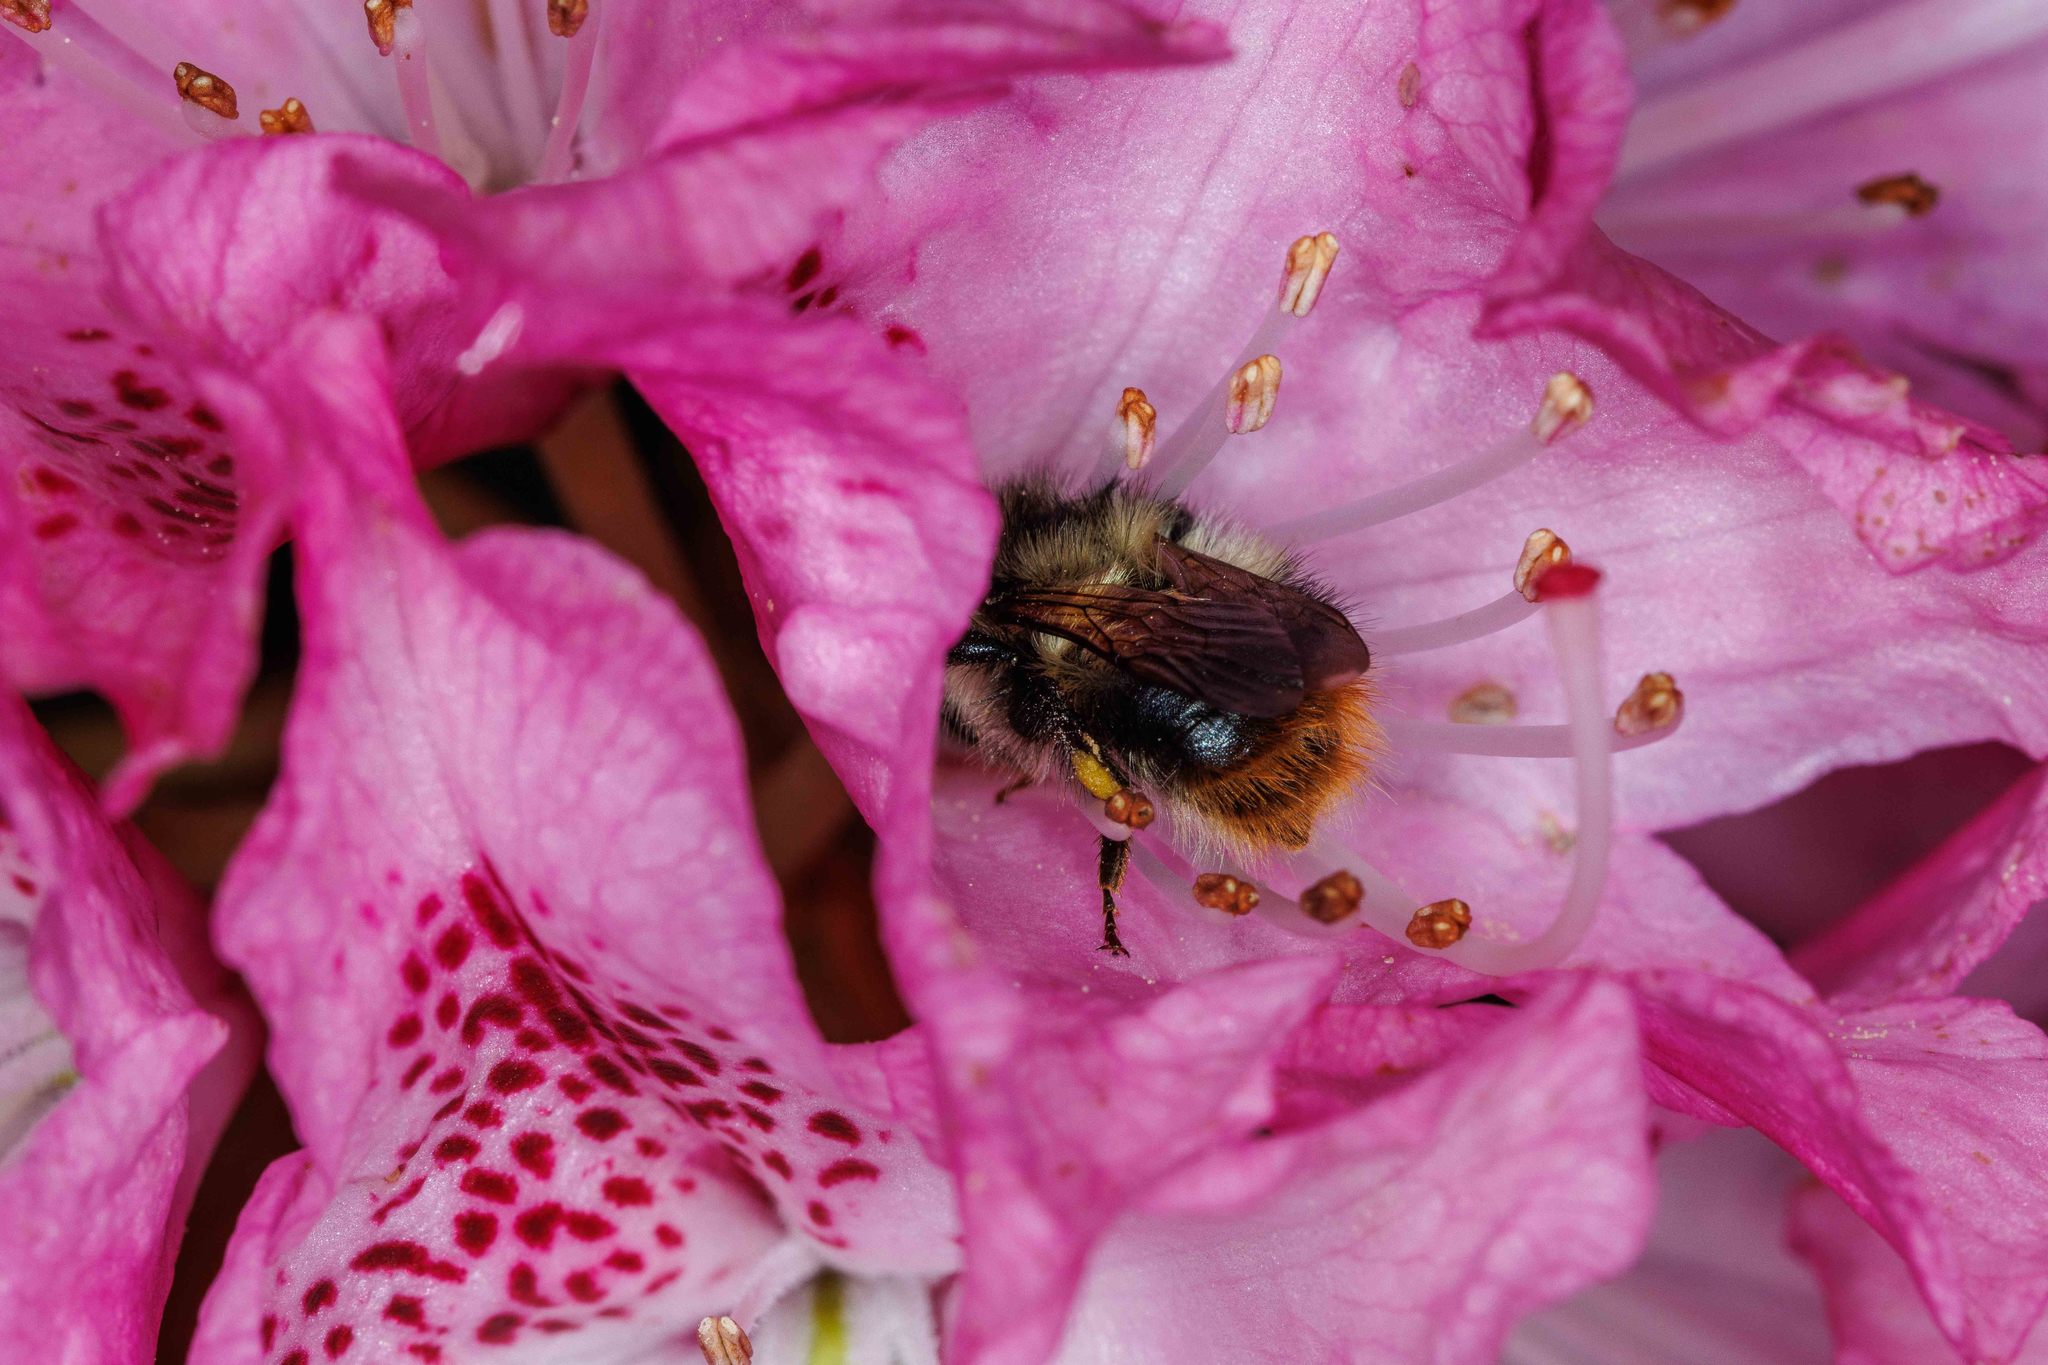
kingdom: Animalia
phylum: Arthropoda
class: Insecta
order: Hymenoptera
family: Apidae
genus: Bombus
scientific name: Bombus mixtus
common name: Fuzzy-horned bumble bee
